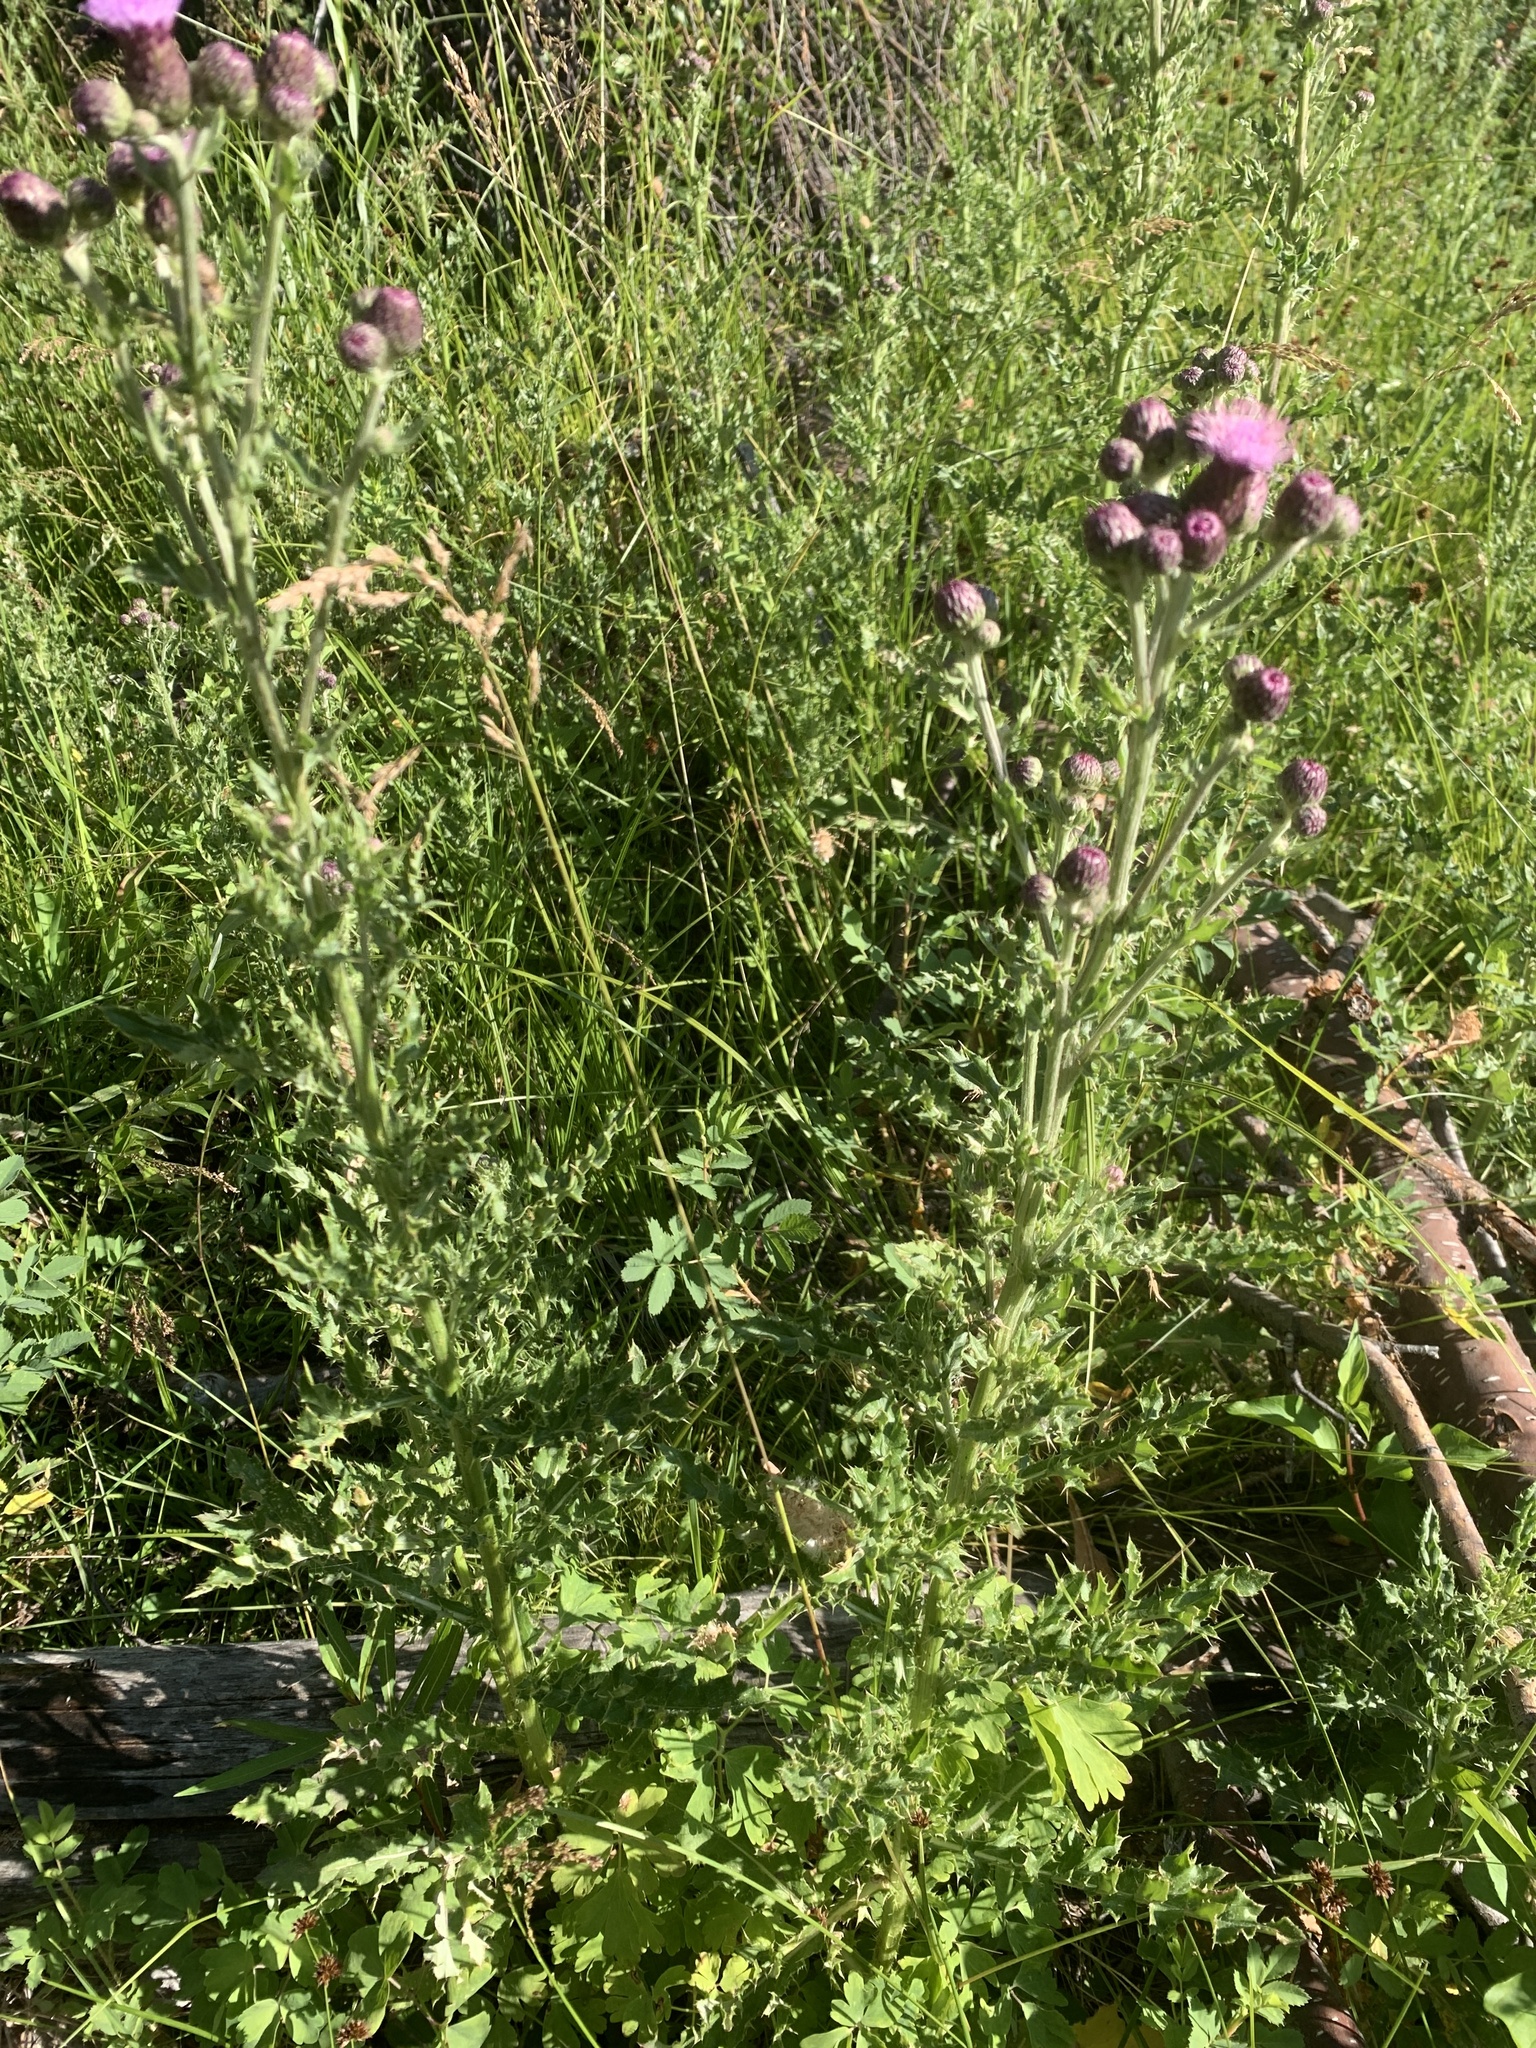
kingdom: Plantae
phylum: Tracheophyta
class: Magnoliopsida
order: Asterales
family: Asteraceae
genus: Cirsium
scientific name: Cirsium arvense
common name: Creeping thistle
